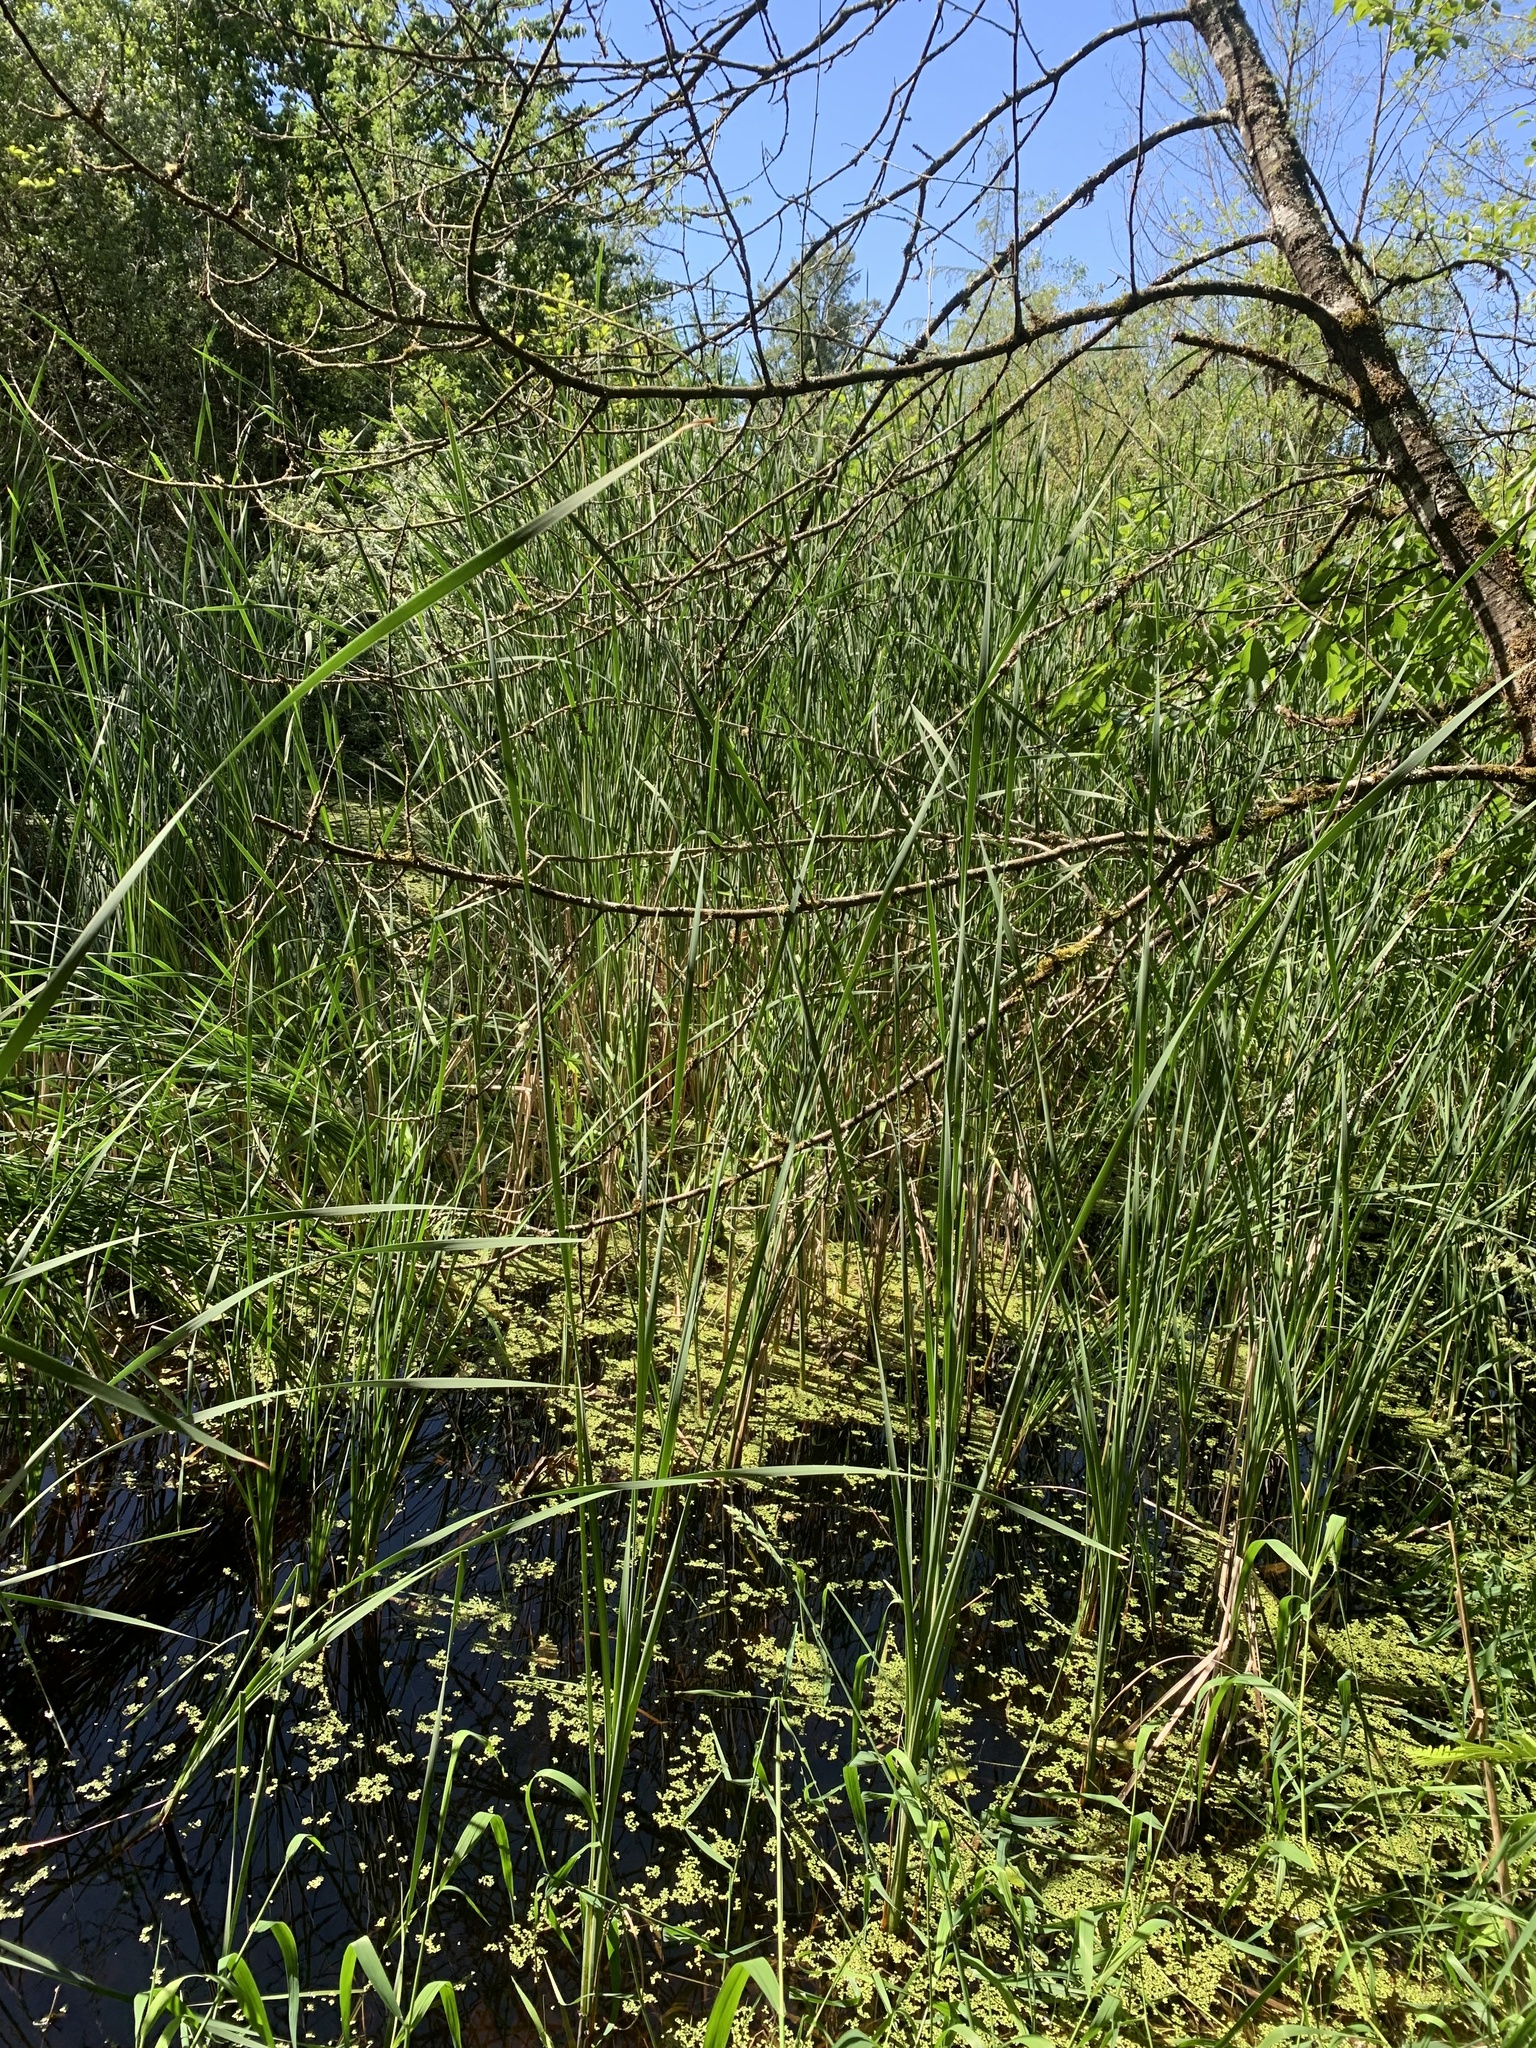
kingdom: Plantae
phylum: Tracheophyta
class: Liliopsida
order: Poales
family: Typhaceae
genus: Typha
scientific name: Typha angustifolia
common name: Lesser bulrush
